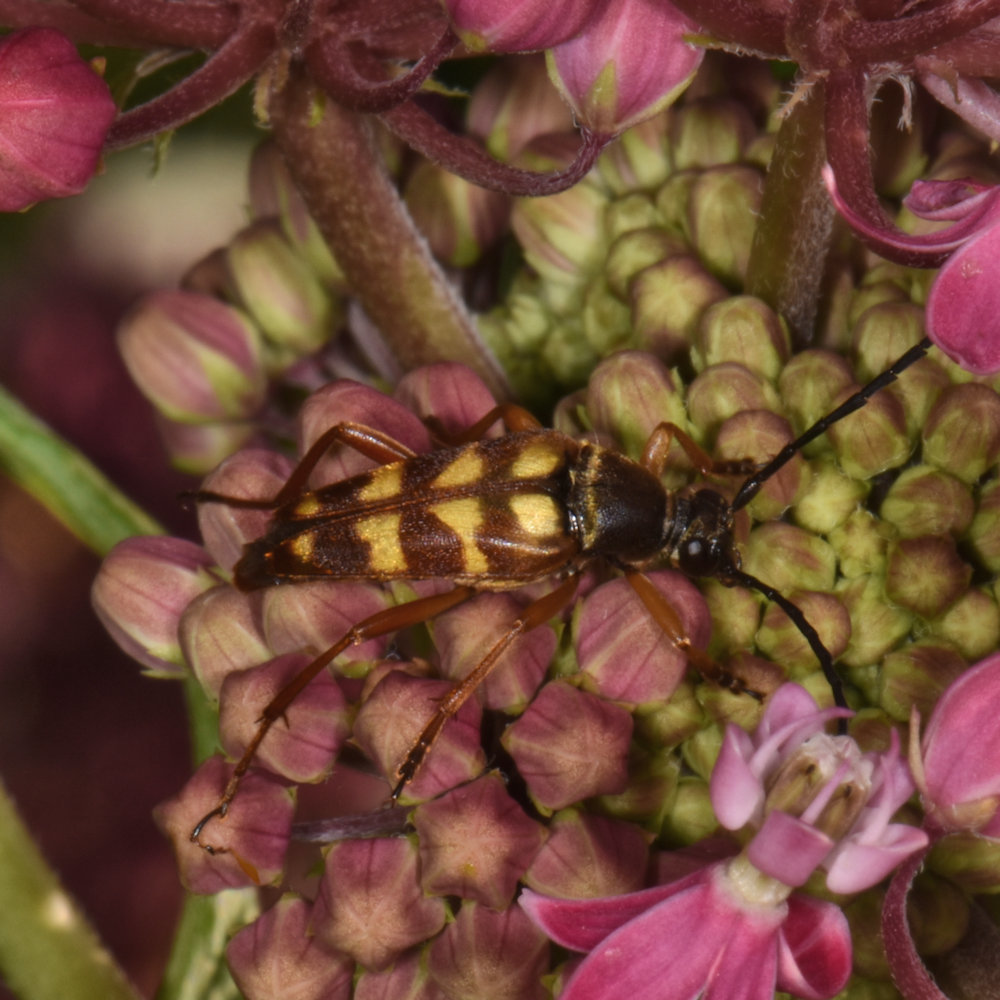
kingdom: Animalia
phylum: Arthropoda
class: Insecta
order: Coleoptera
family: Cerambycidae
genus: Typocerus
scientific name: Typocerus velutinus
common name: Banded longhorn beetle
